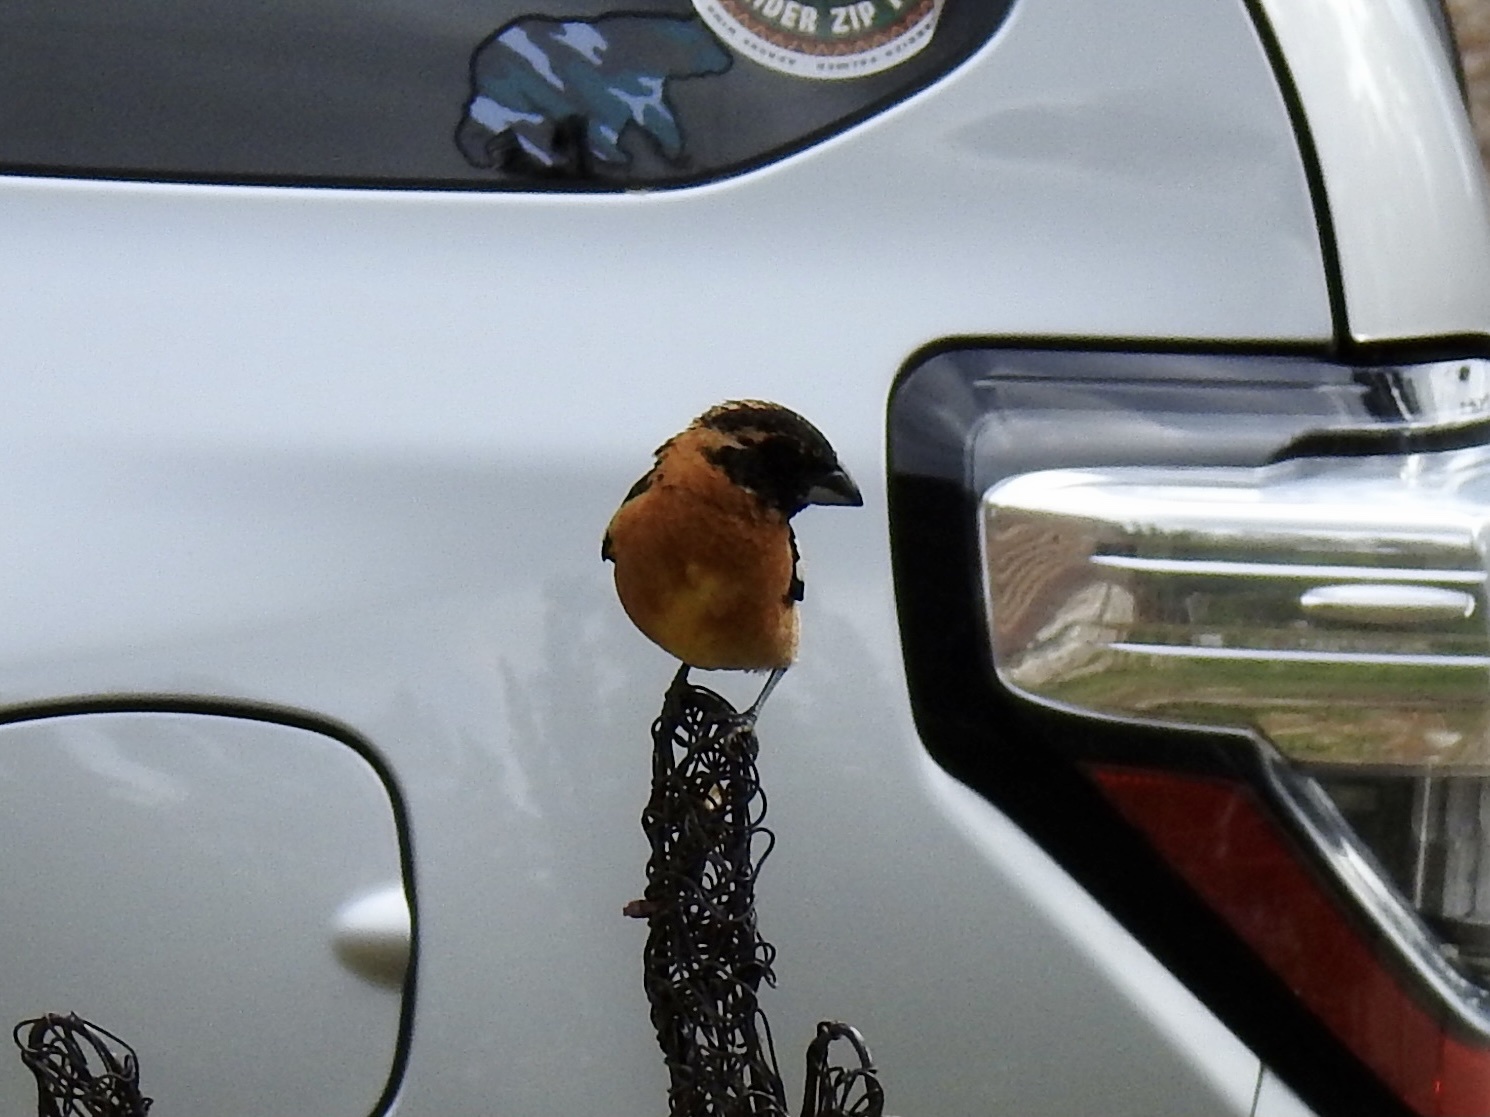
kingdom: Animalia
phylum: Chordata
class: Aves
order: Passeriformes
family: Cardinalidae
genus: Pheucticus
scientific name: Pheucticus melanocephalus
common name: Black-headed grosbeak
